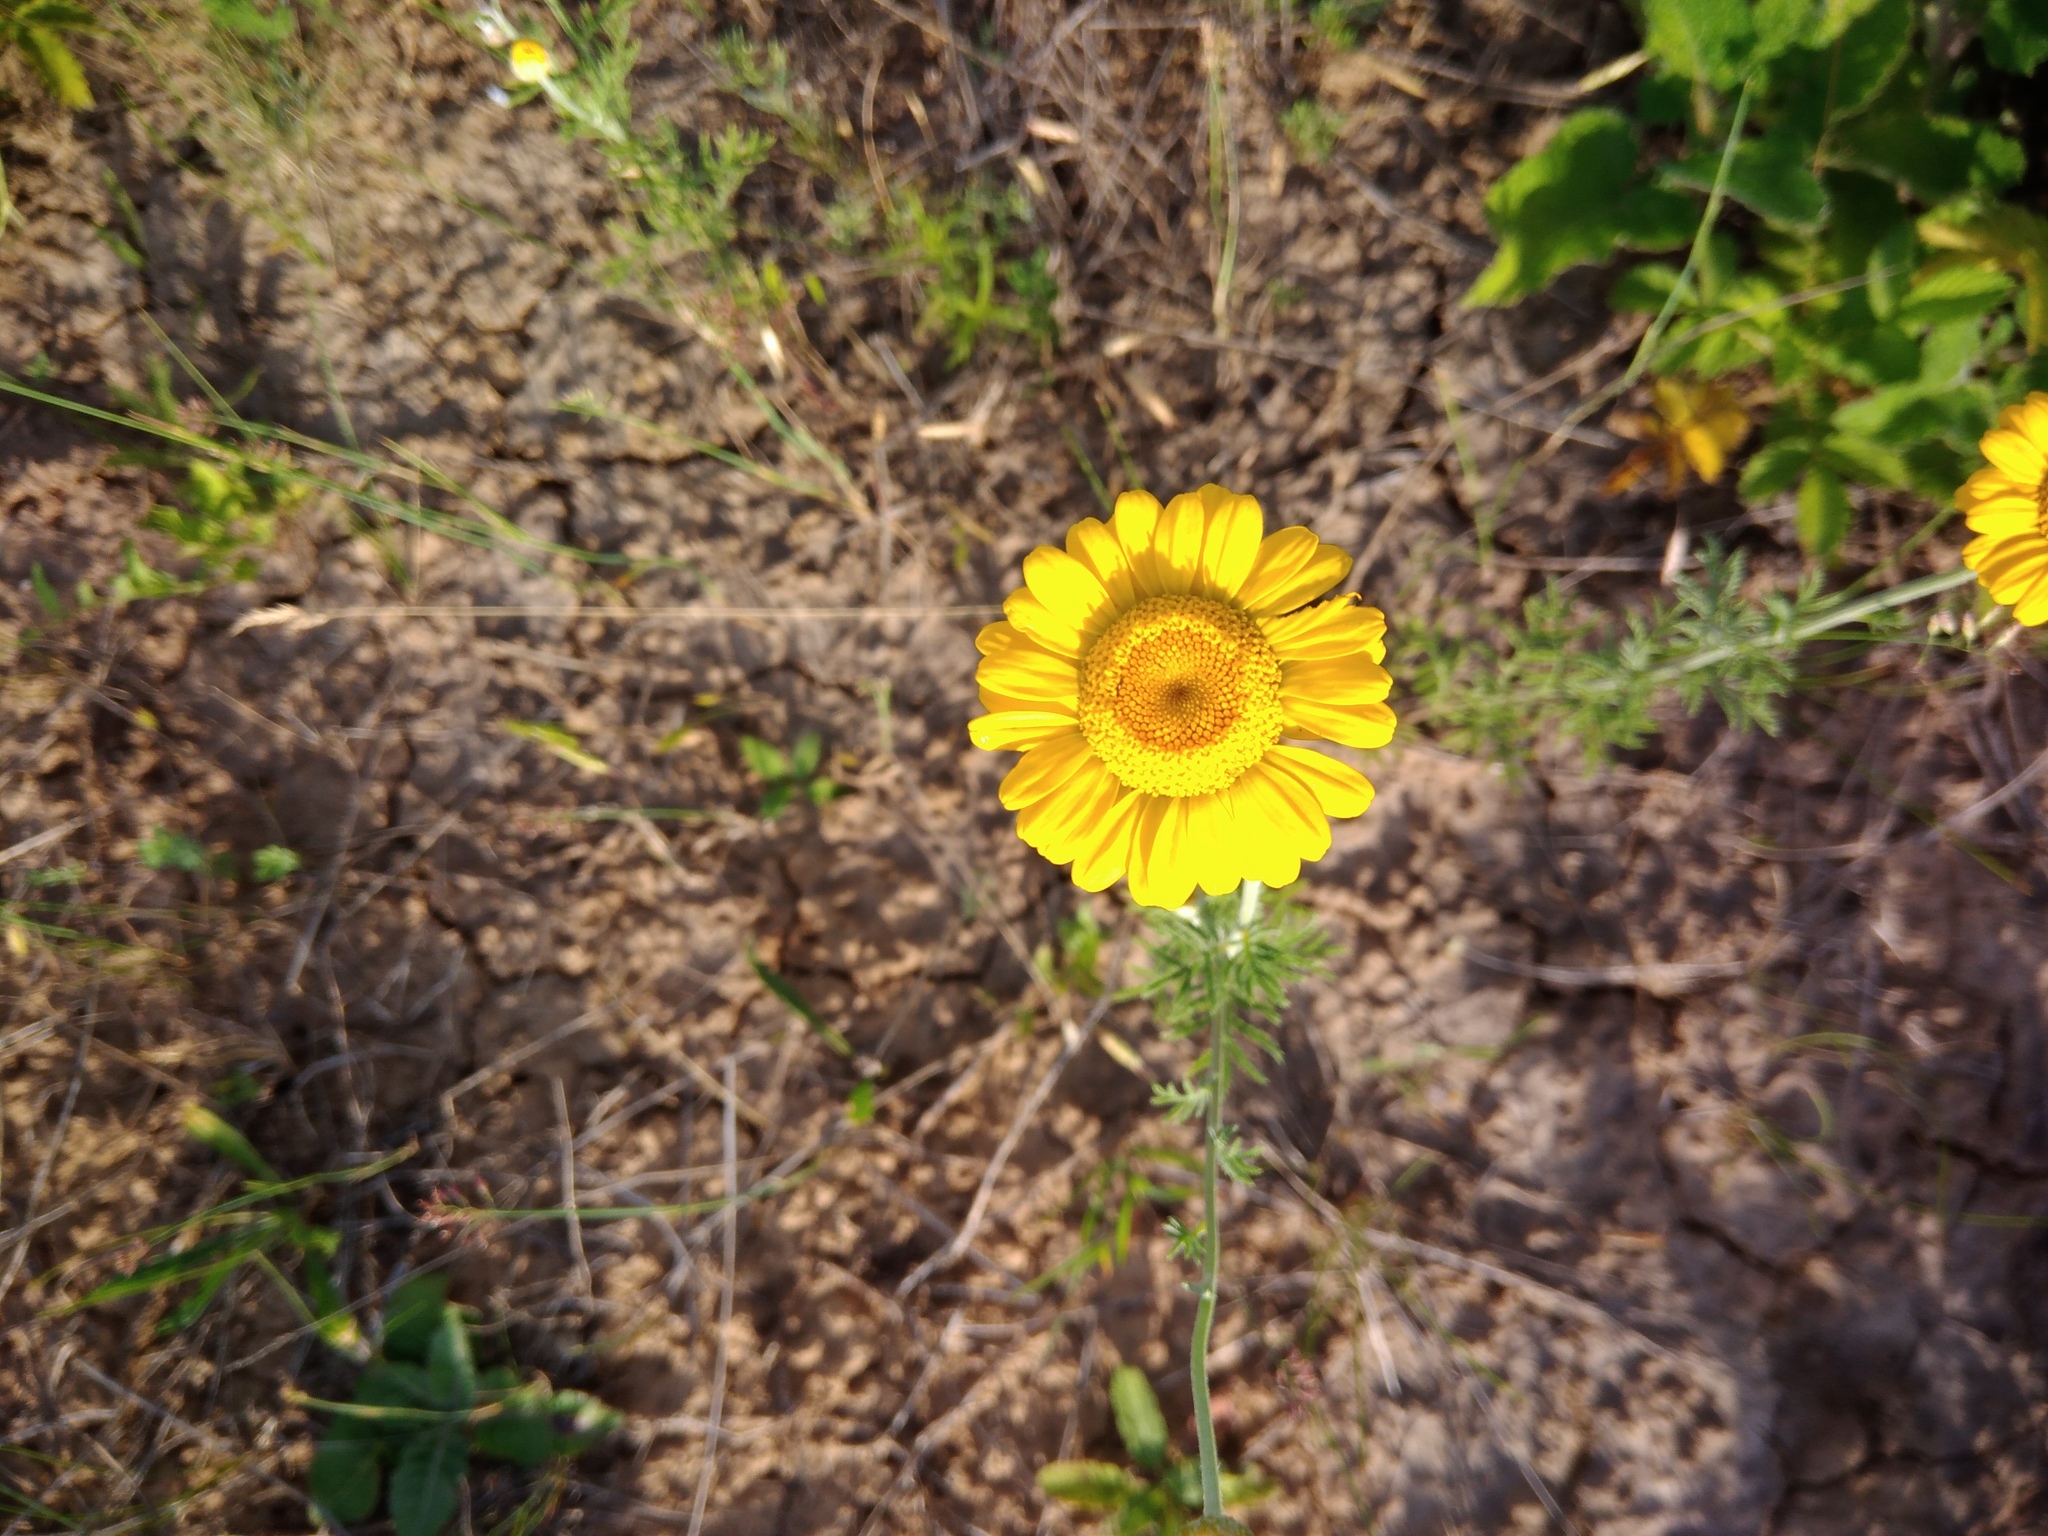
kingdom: Plantae
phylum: Tracheophyta
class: Magnoliopsida
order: Asterales
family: Asteraceae
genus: Cota
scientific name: Cota tinctoria
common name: Golden chamomile
